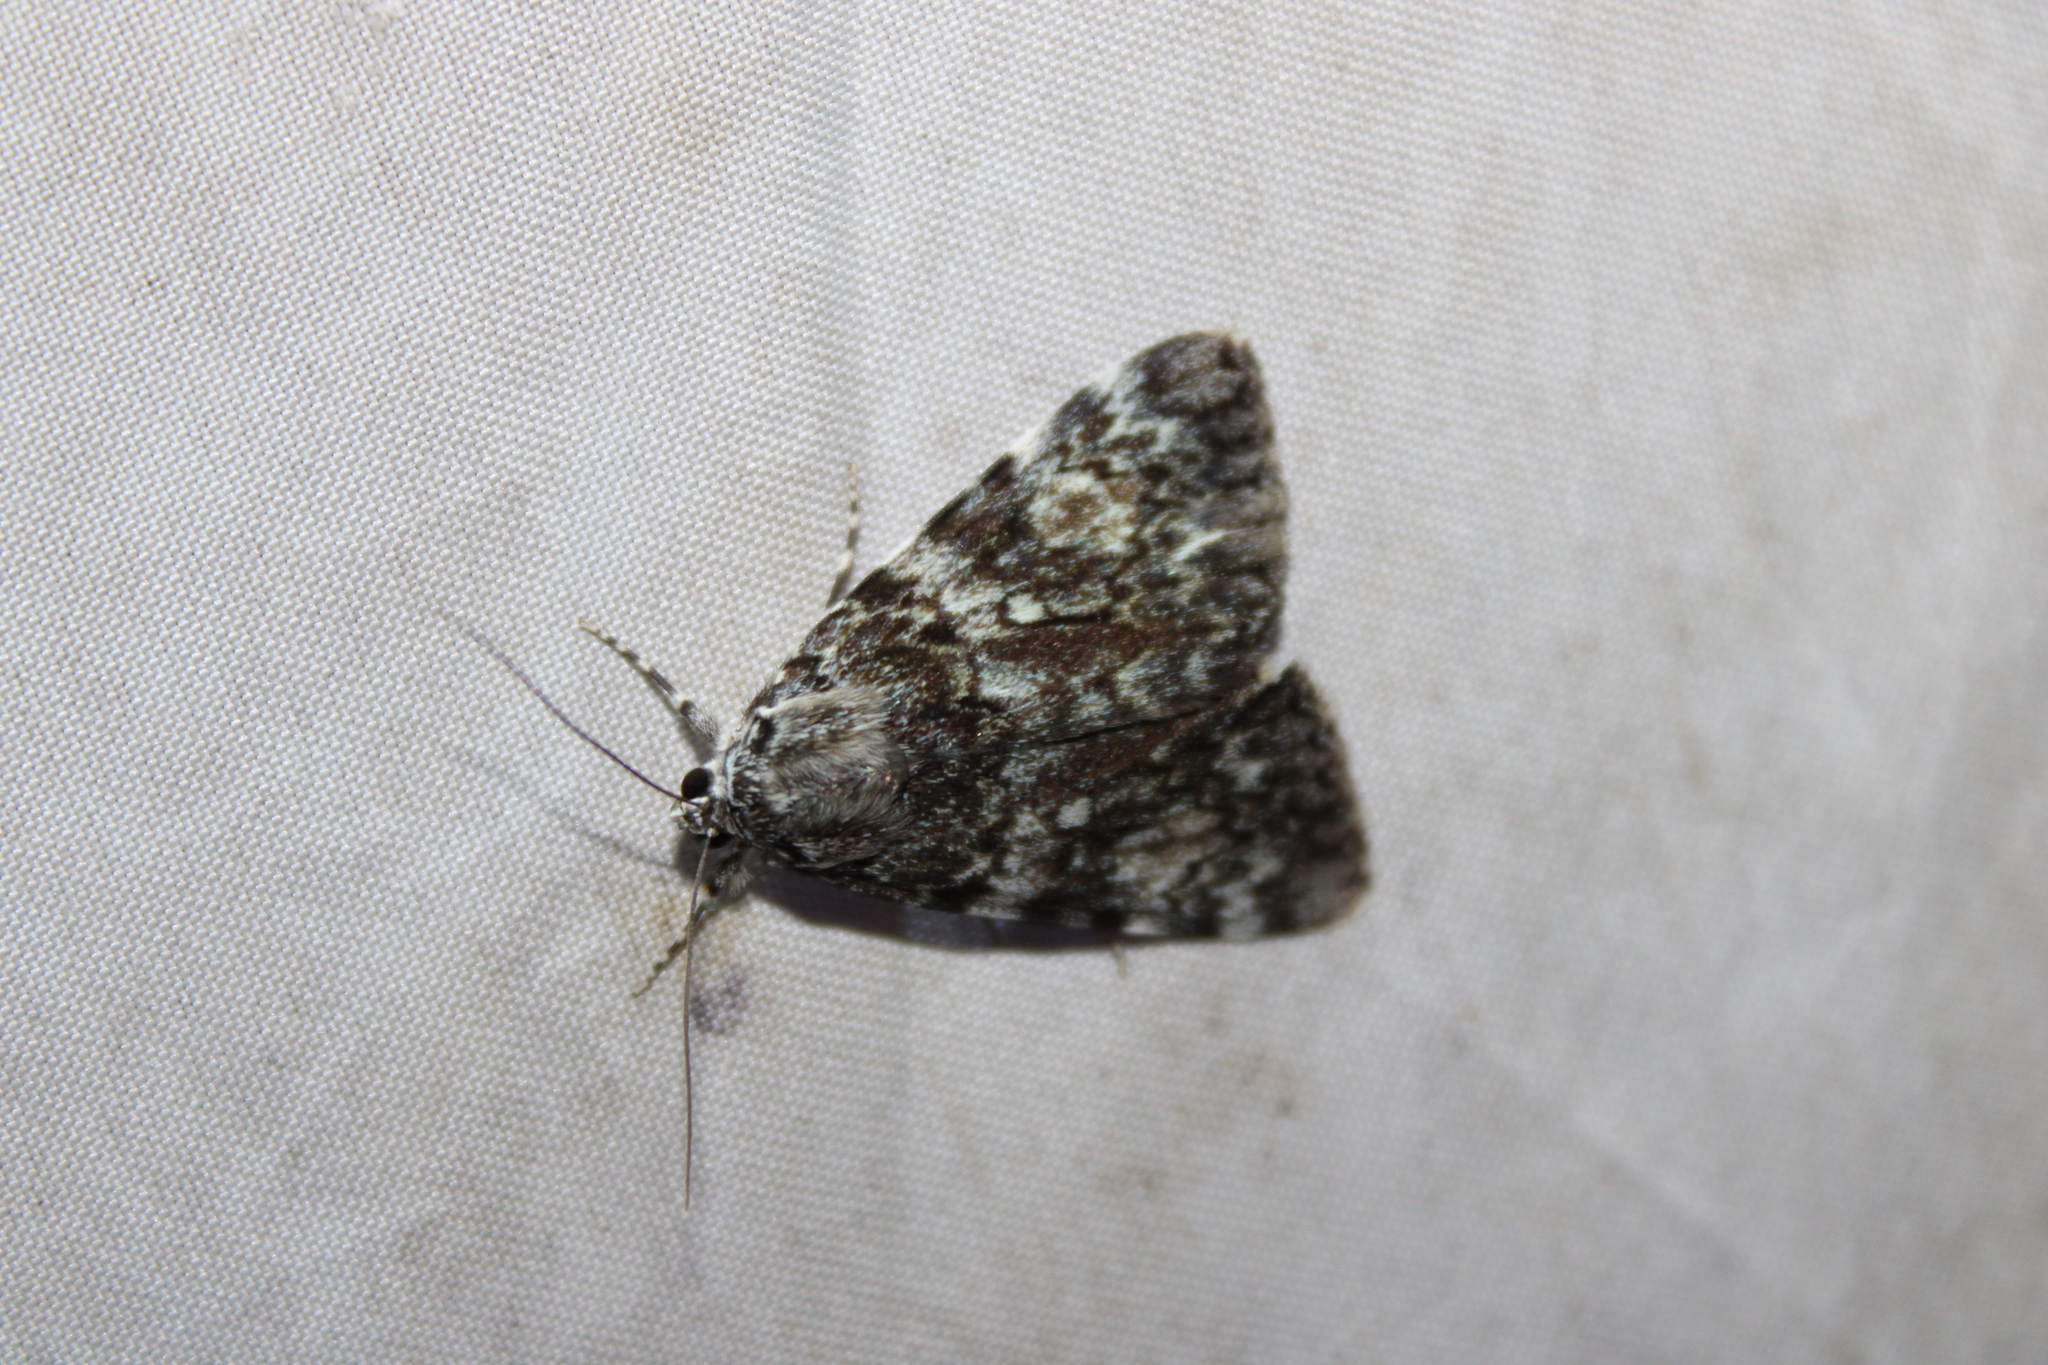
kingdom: Animalia
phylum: Arthropoda
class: Insecta
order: Lepidoptera
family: Erebidae
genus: Catocala
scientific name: Catocala lineella
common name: Little lined underwing
